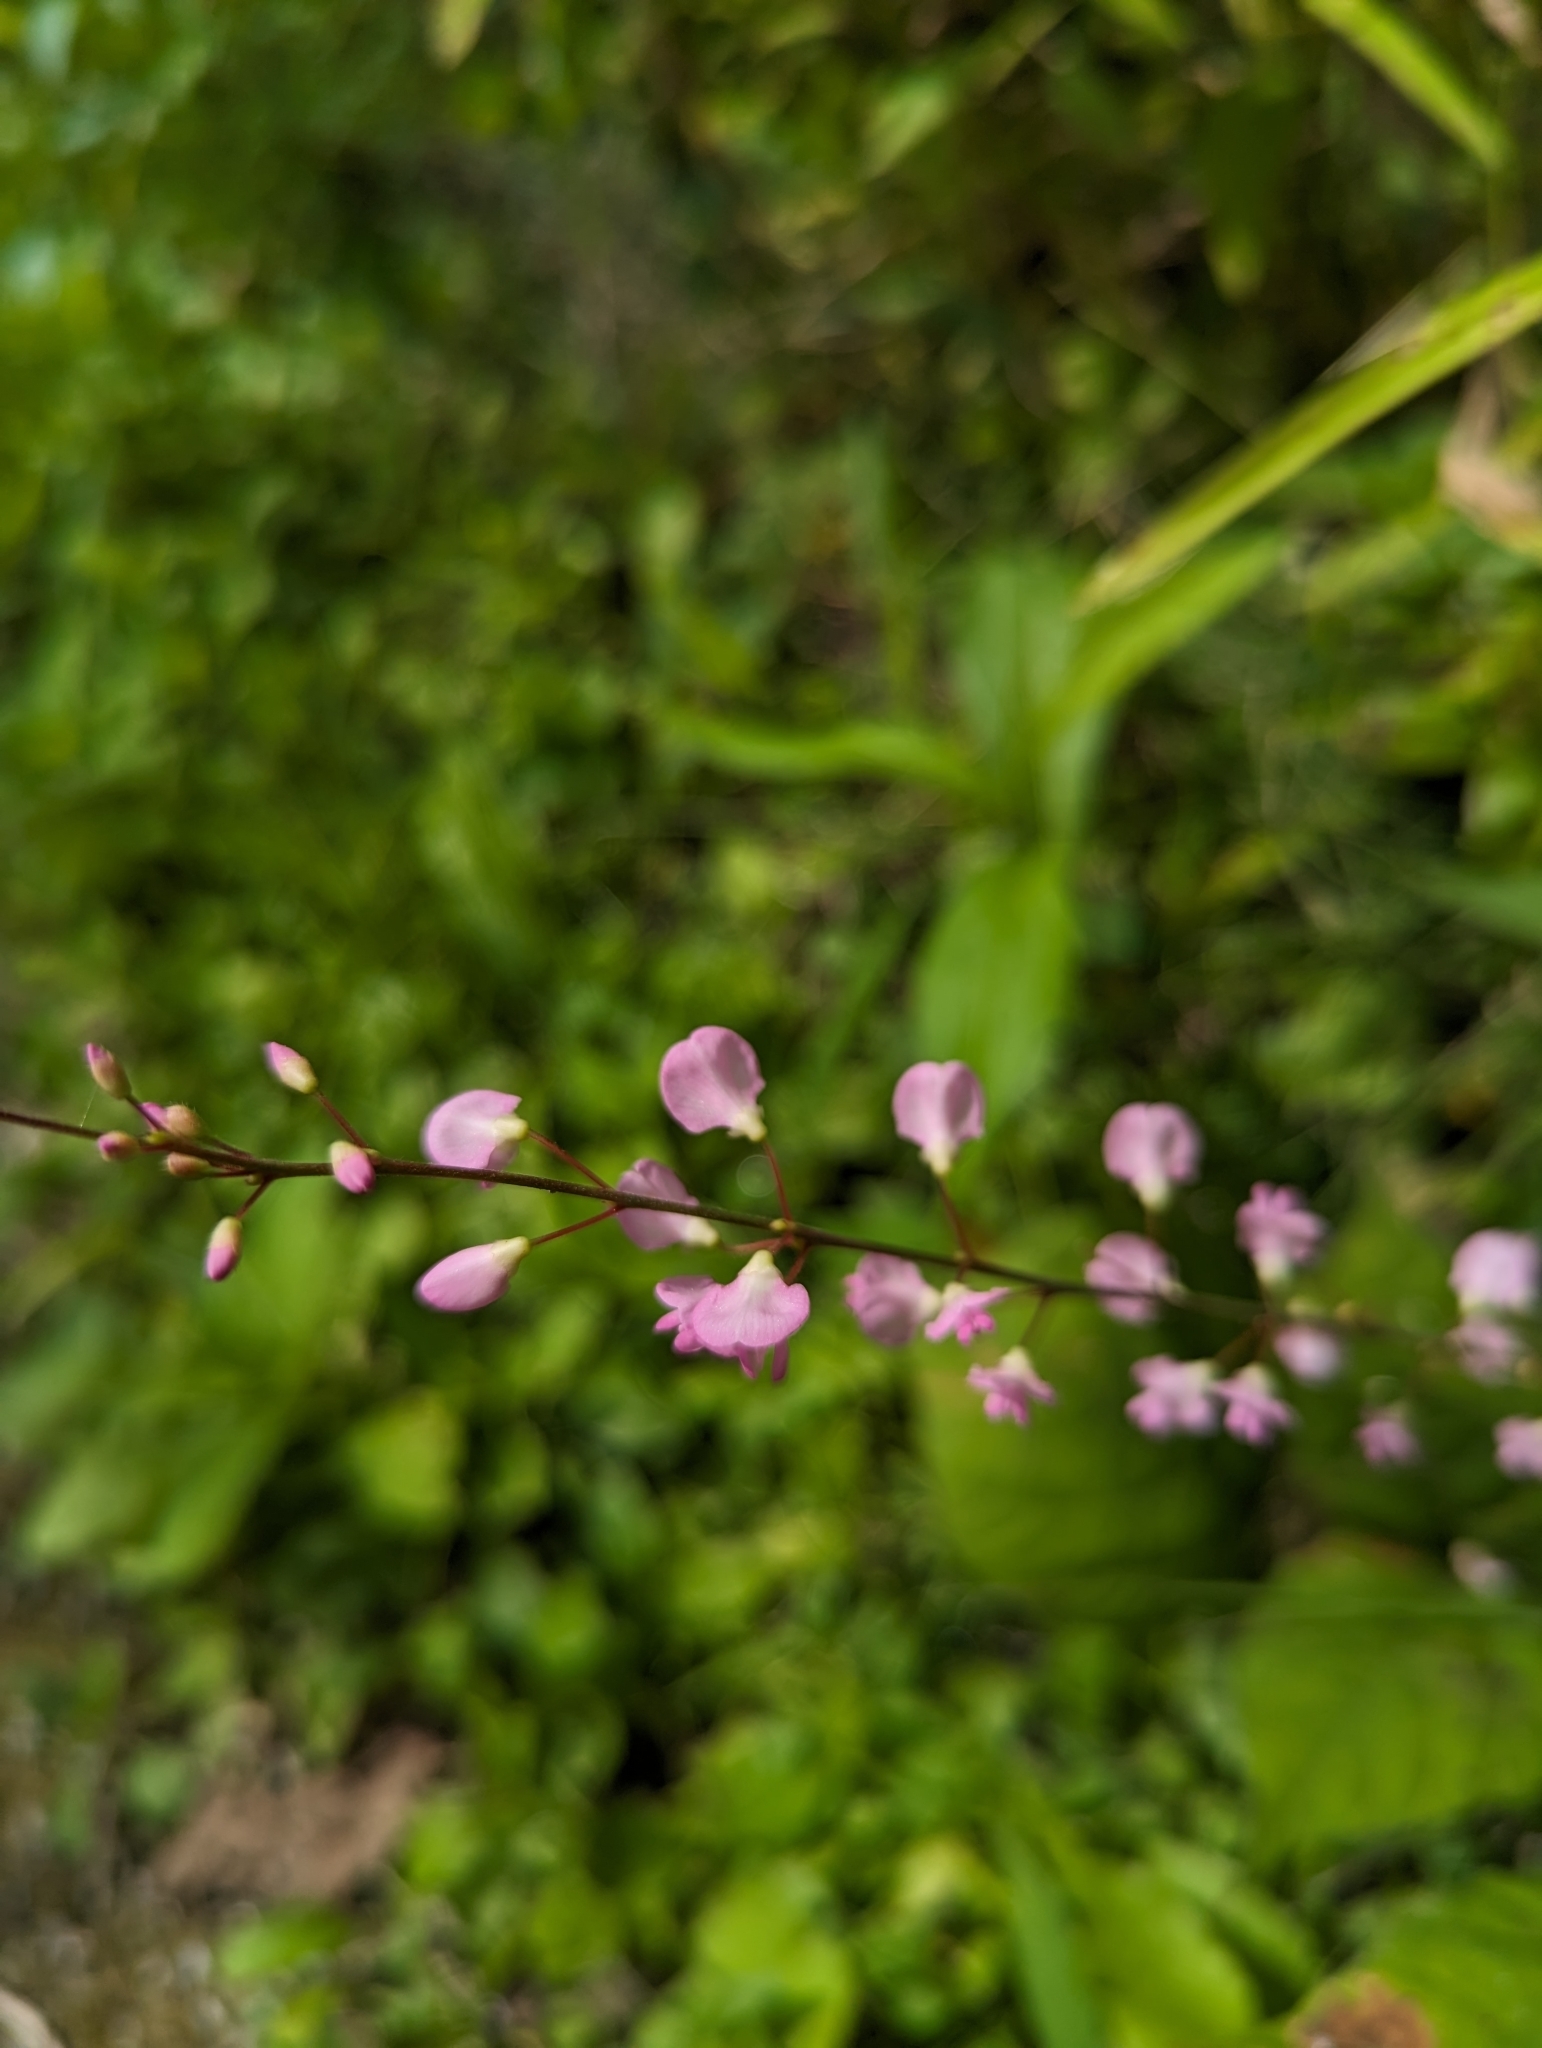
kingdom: Plantae
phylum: Tracheophyta
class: Magnoliopsida
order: Fabales
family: Fabaceae
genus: Hylodesmum
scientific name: Hylodesmum glutinosum
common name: Clustered-leaved tick-trefoil
